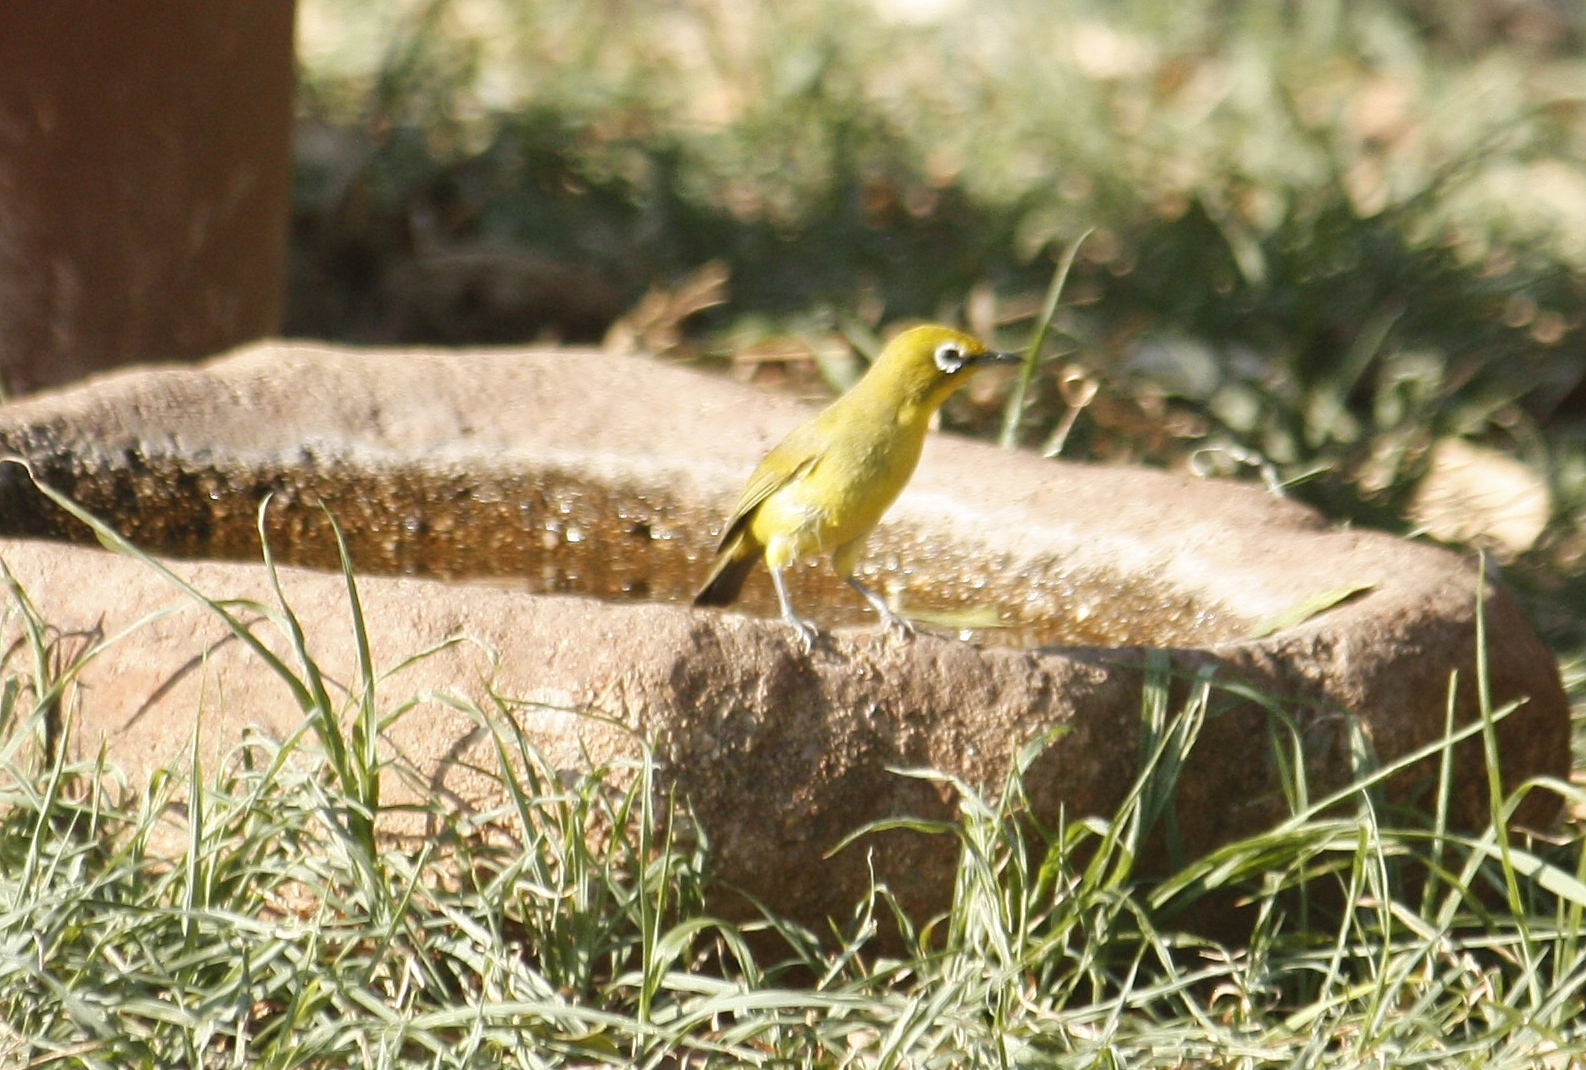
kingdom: Animalia
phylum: Chordata
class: Aves
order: Passeriformes
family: Zosteropidae
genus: Zosterops
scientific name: Zosterops virens
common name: Cape white-eye
